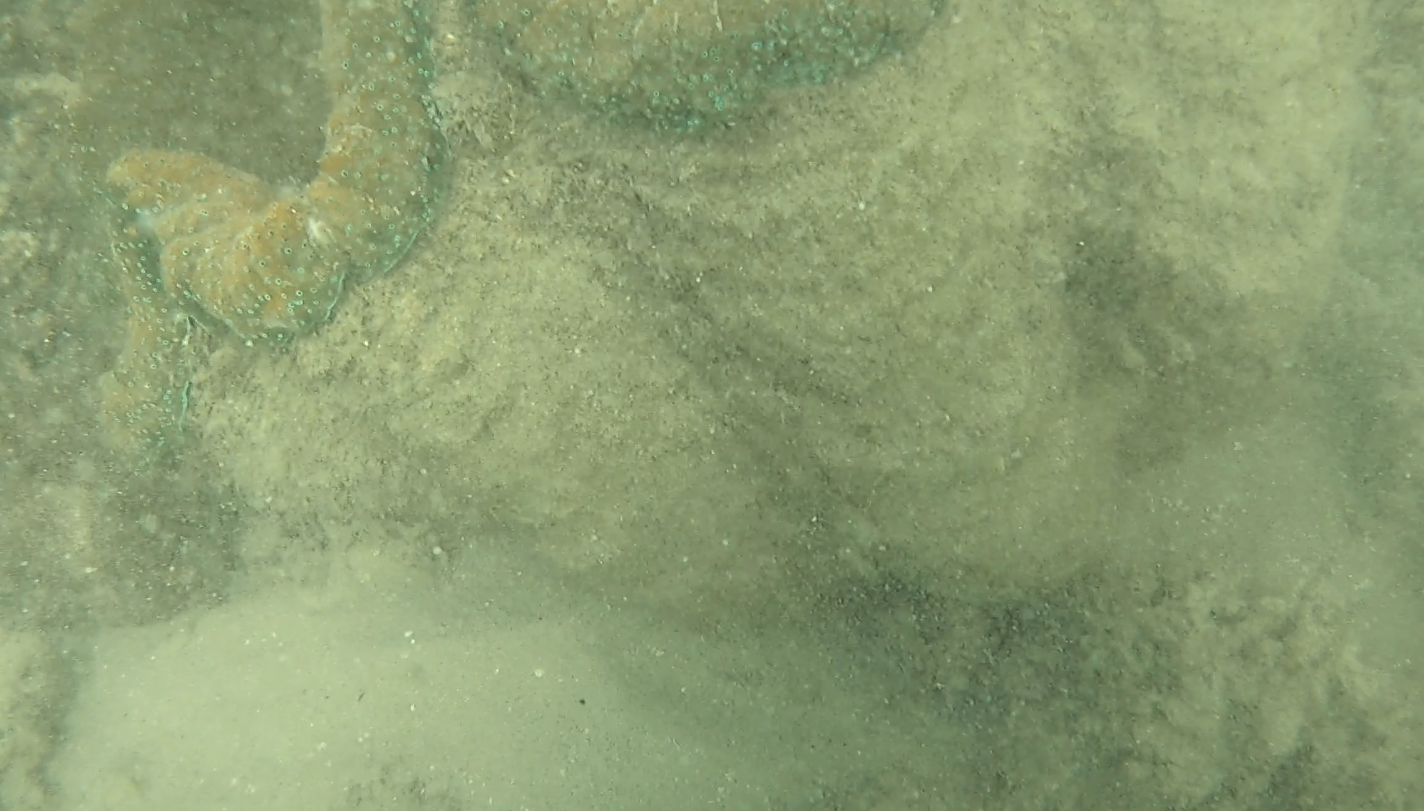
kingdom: Animalia
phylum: Mollusca
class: Bivalvia
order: Cardiida
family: Cardiidae
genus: Tridacna
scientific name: Tridacna gigas
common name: Giant clam
